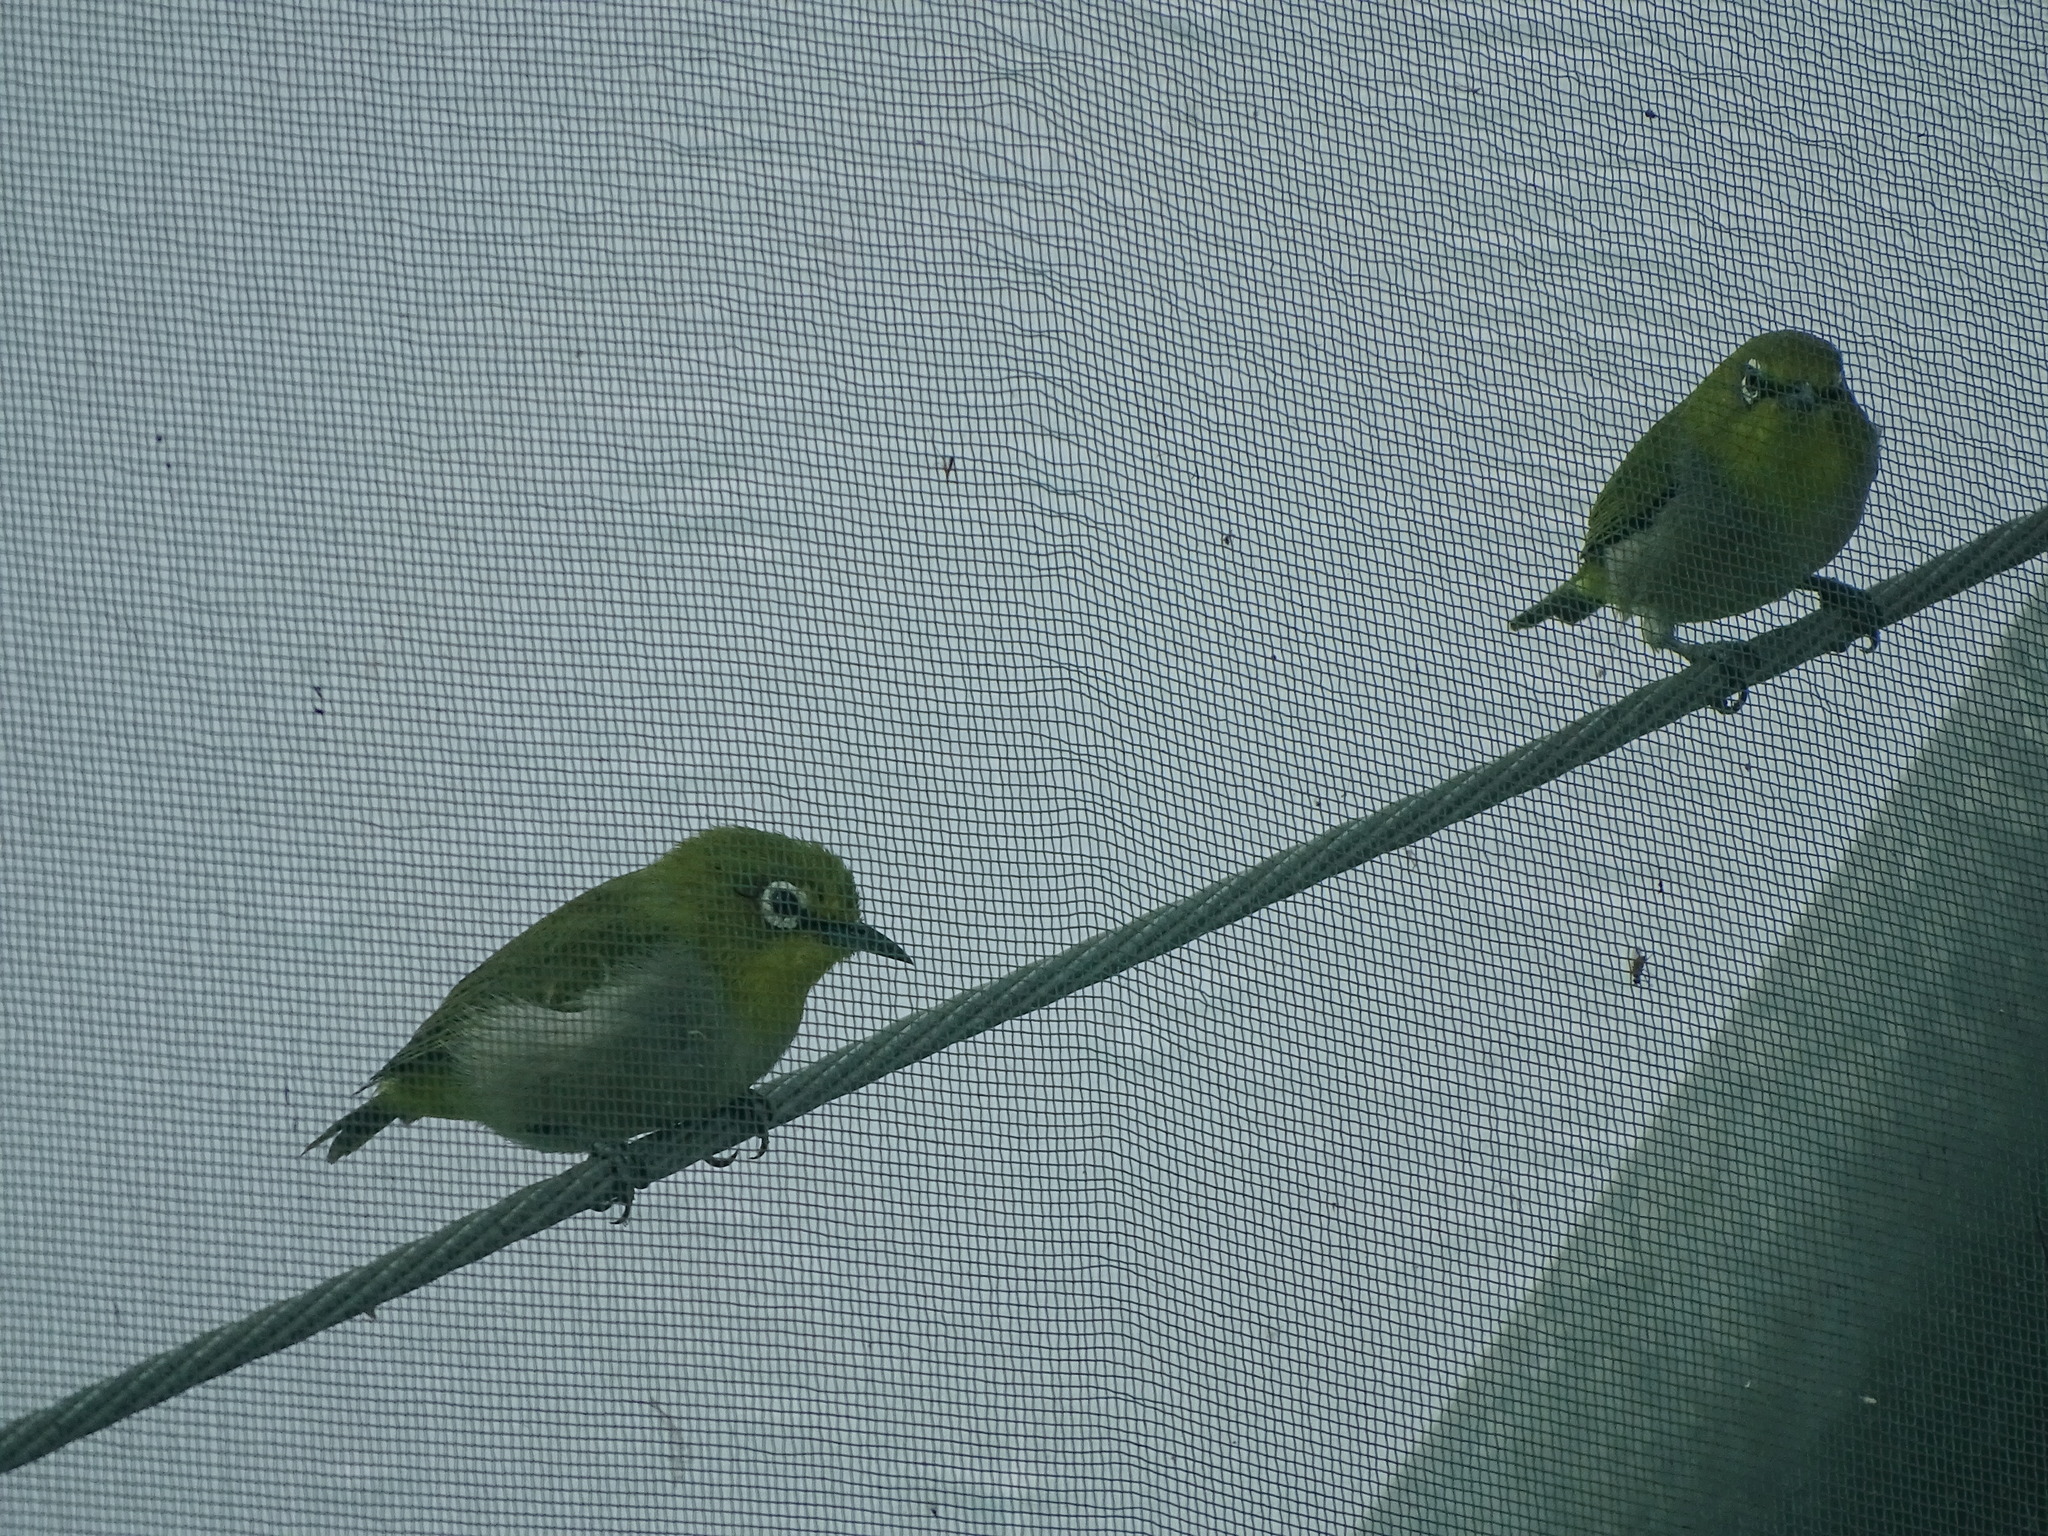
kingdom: Animalia
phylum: Chordata
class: Aves
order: Passeriformes
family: Zosteropidae
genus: Zosterops
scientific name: Zosterops simplex
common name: Swinhoe's white-eye
